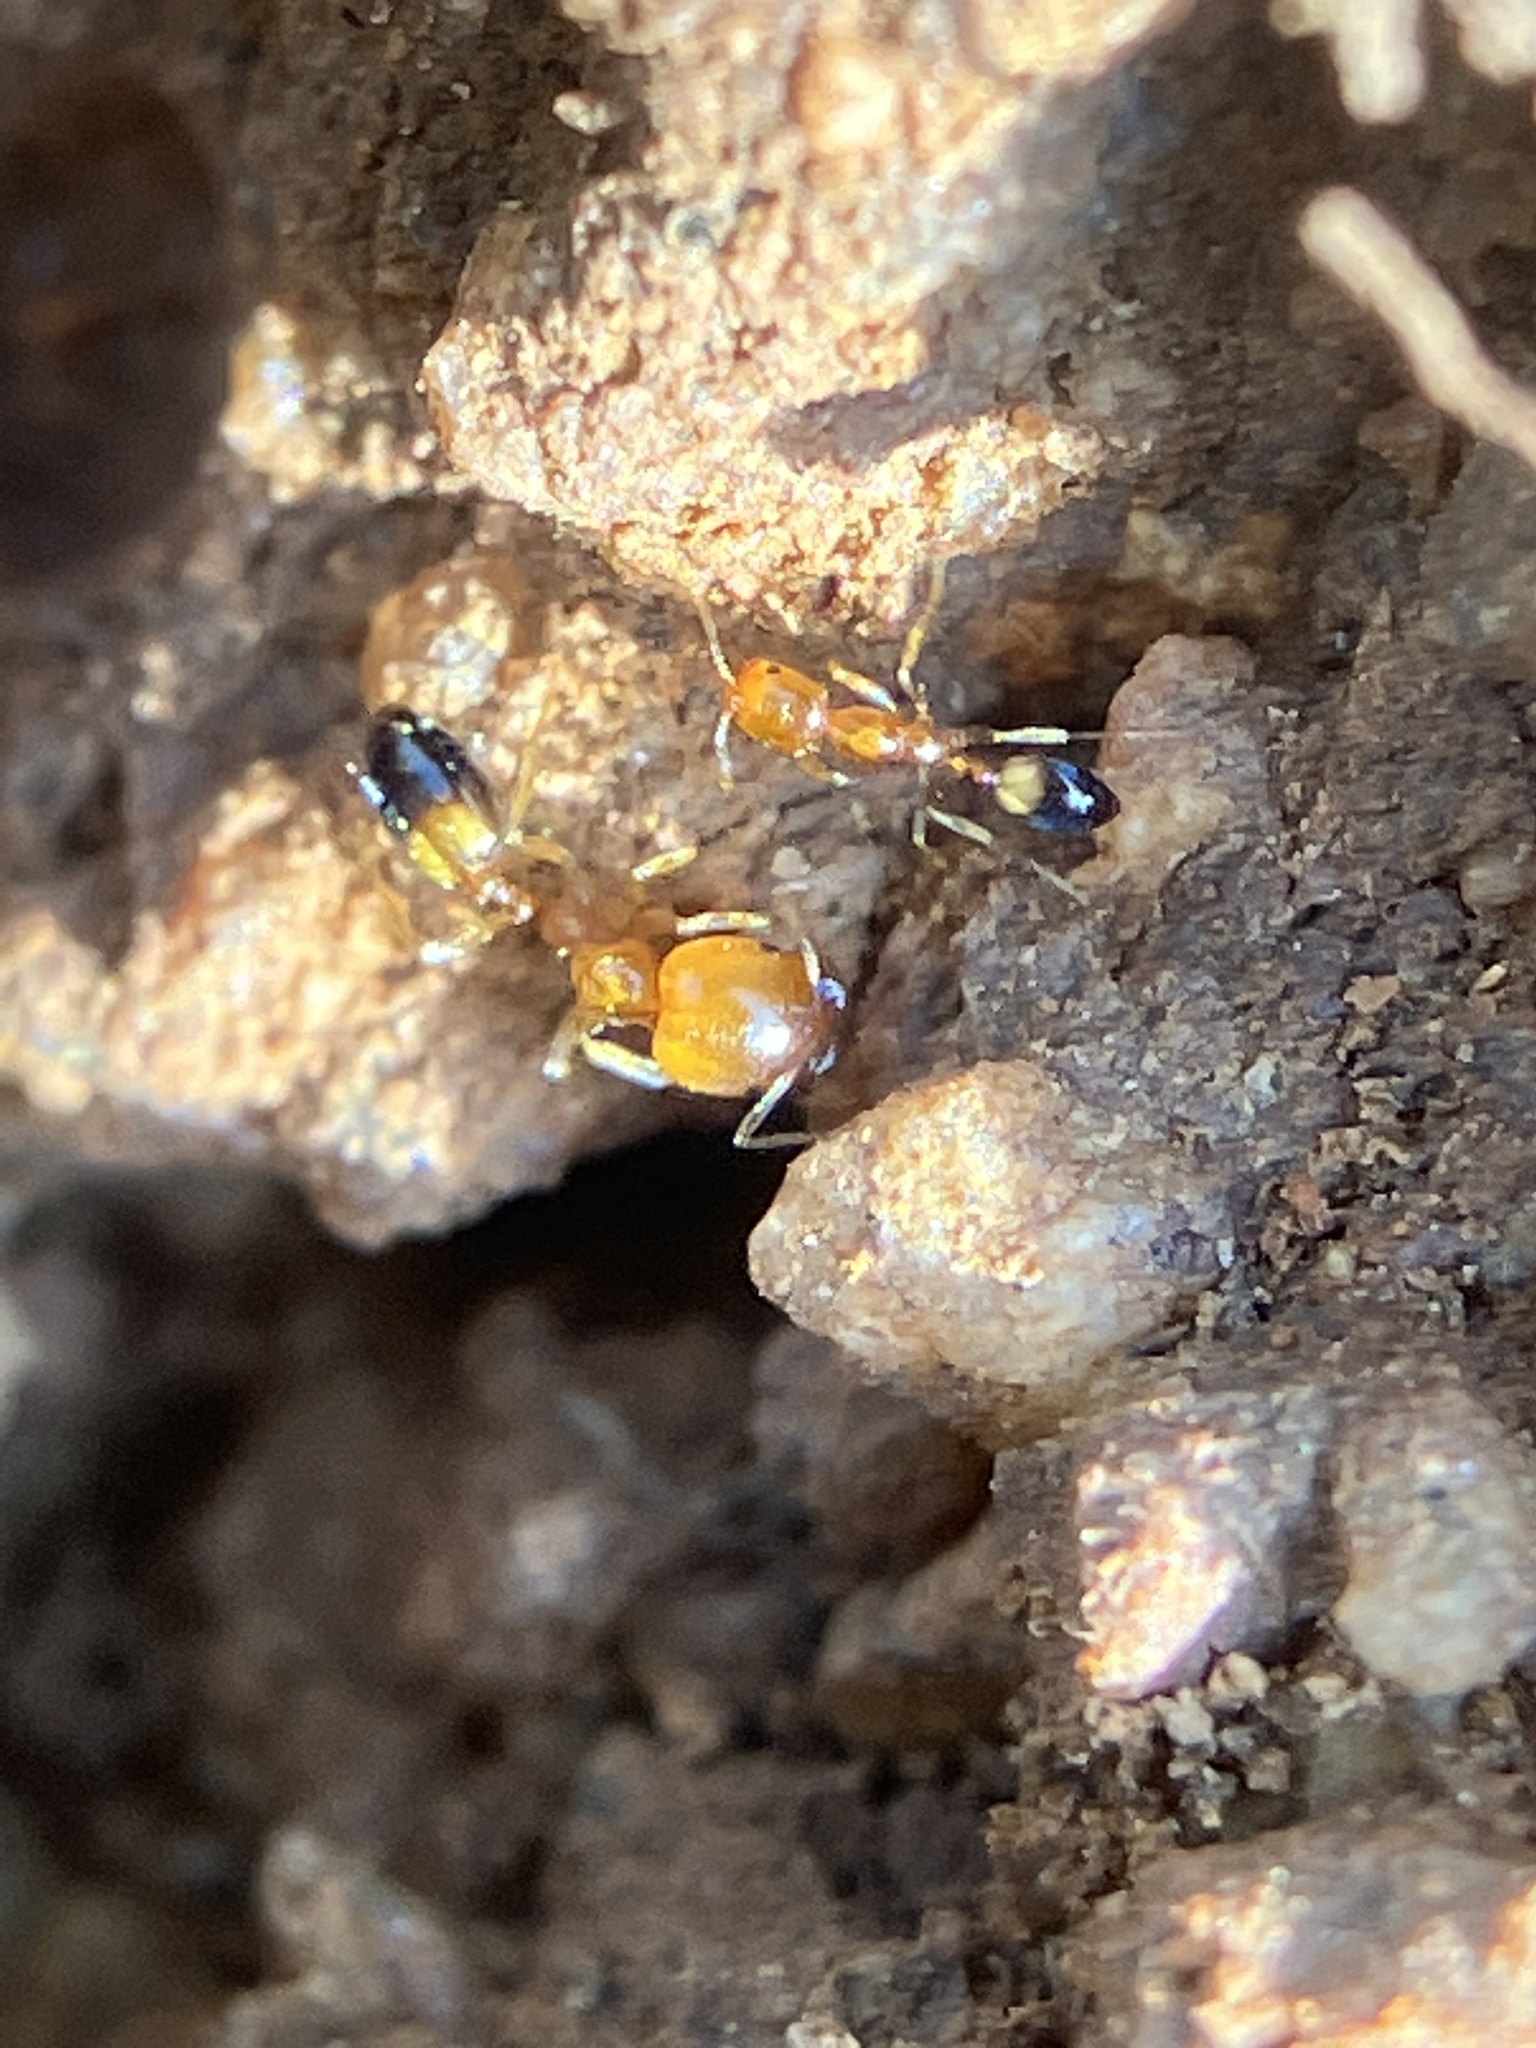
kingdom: Animalia
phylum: Arthropoda
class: Insecta
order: Hymenoptera
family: Formicidae
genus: Monomorium
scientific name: Monomorium destructor
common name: Destructive trailing ant
